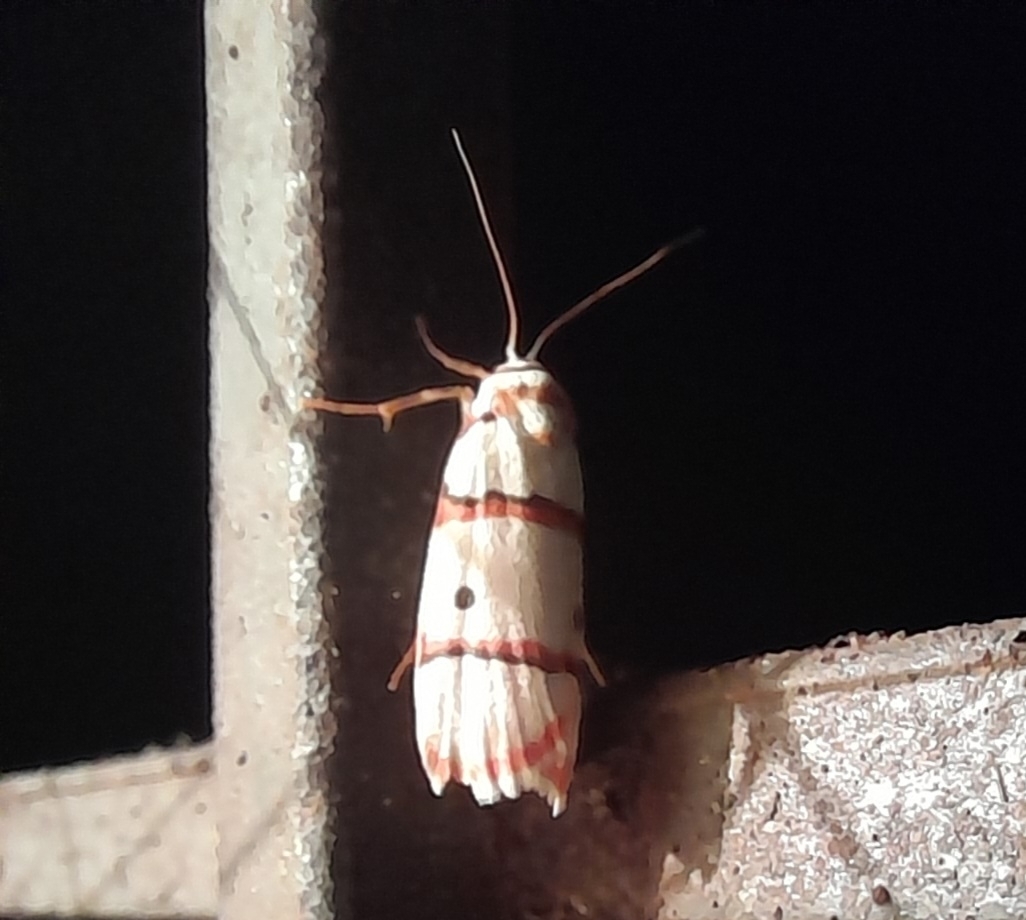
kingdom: Animalia
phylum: Arthropoda
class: Insecta
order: Lepidoptera
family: Erebidae
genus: Cyana
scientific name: Cyana peregrina
